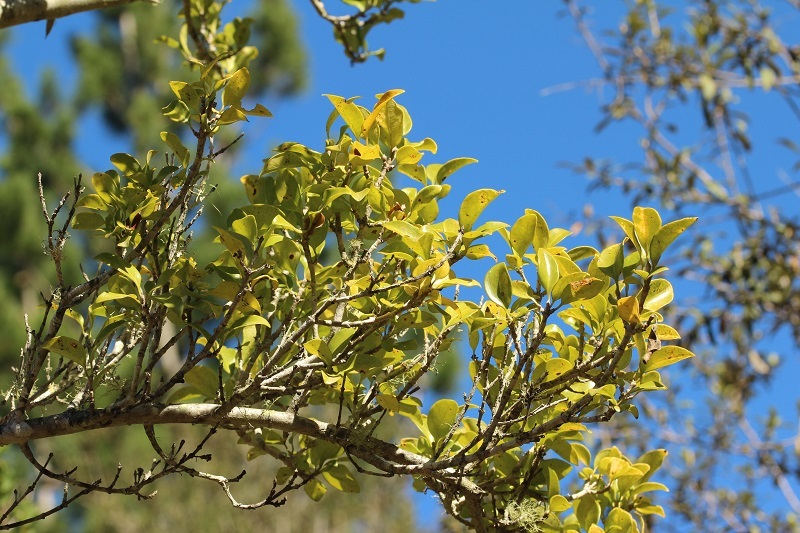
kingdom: Plantae
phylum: Tracheophyta
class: Magnoliopsida
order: Gentianales
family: Rubiaceae
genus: Canthium
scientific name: Canthium inerme
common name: Unarmed turkey-berry
